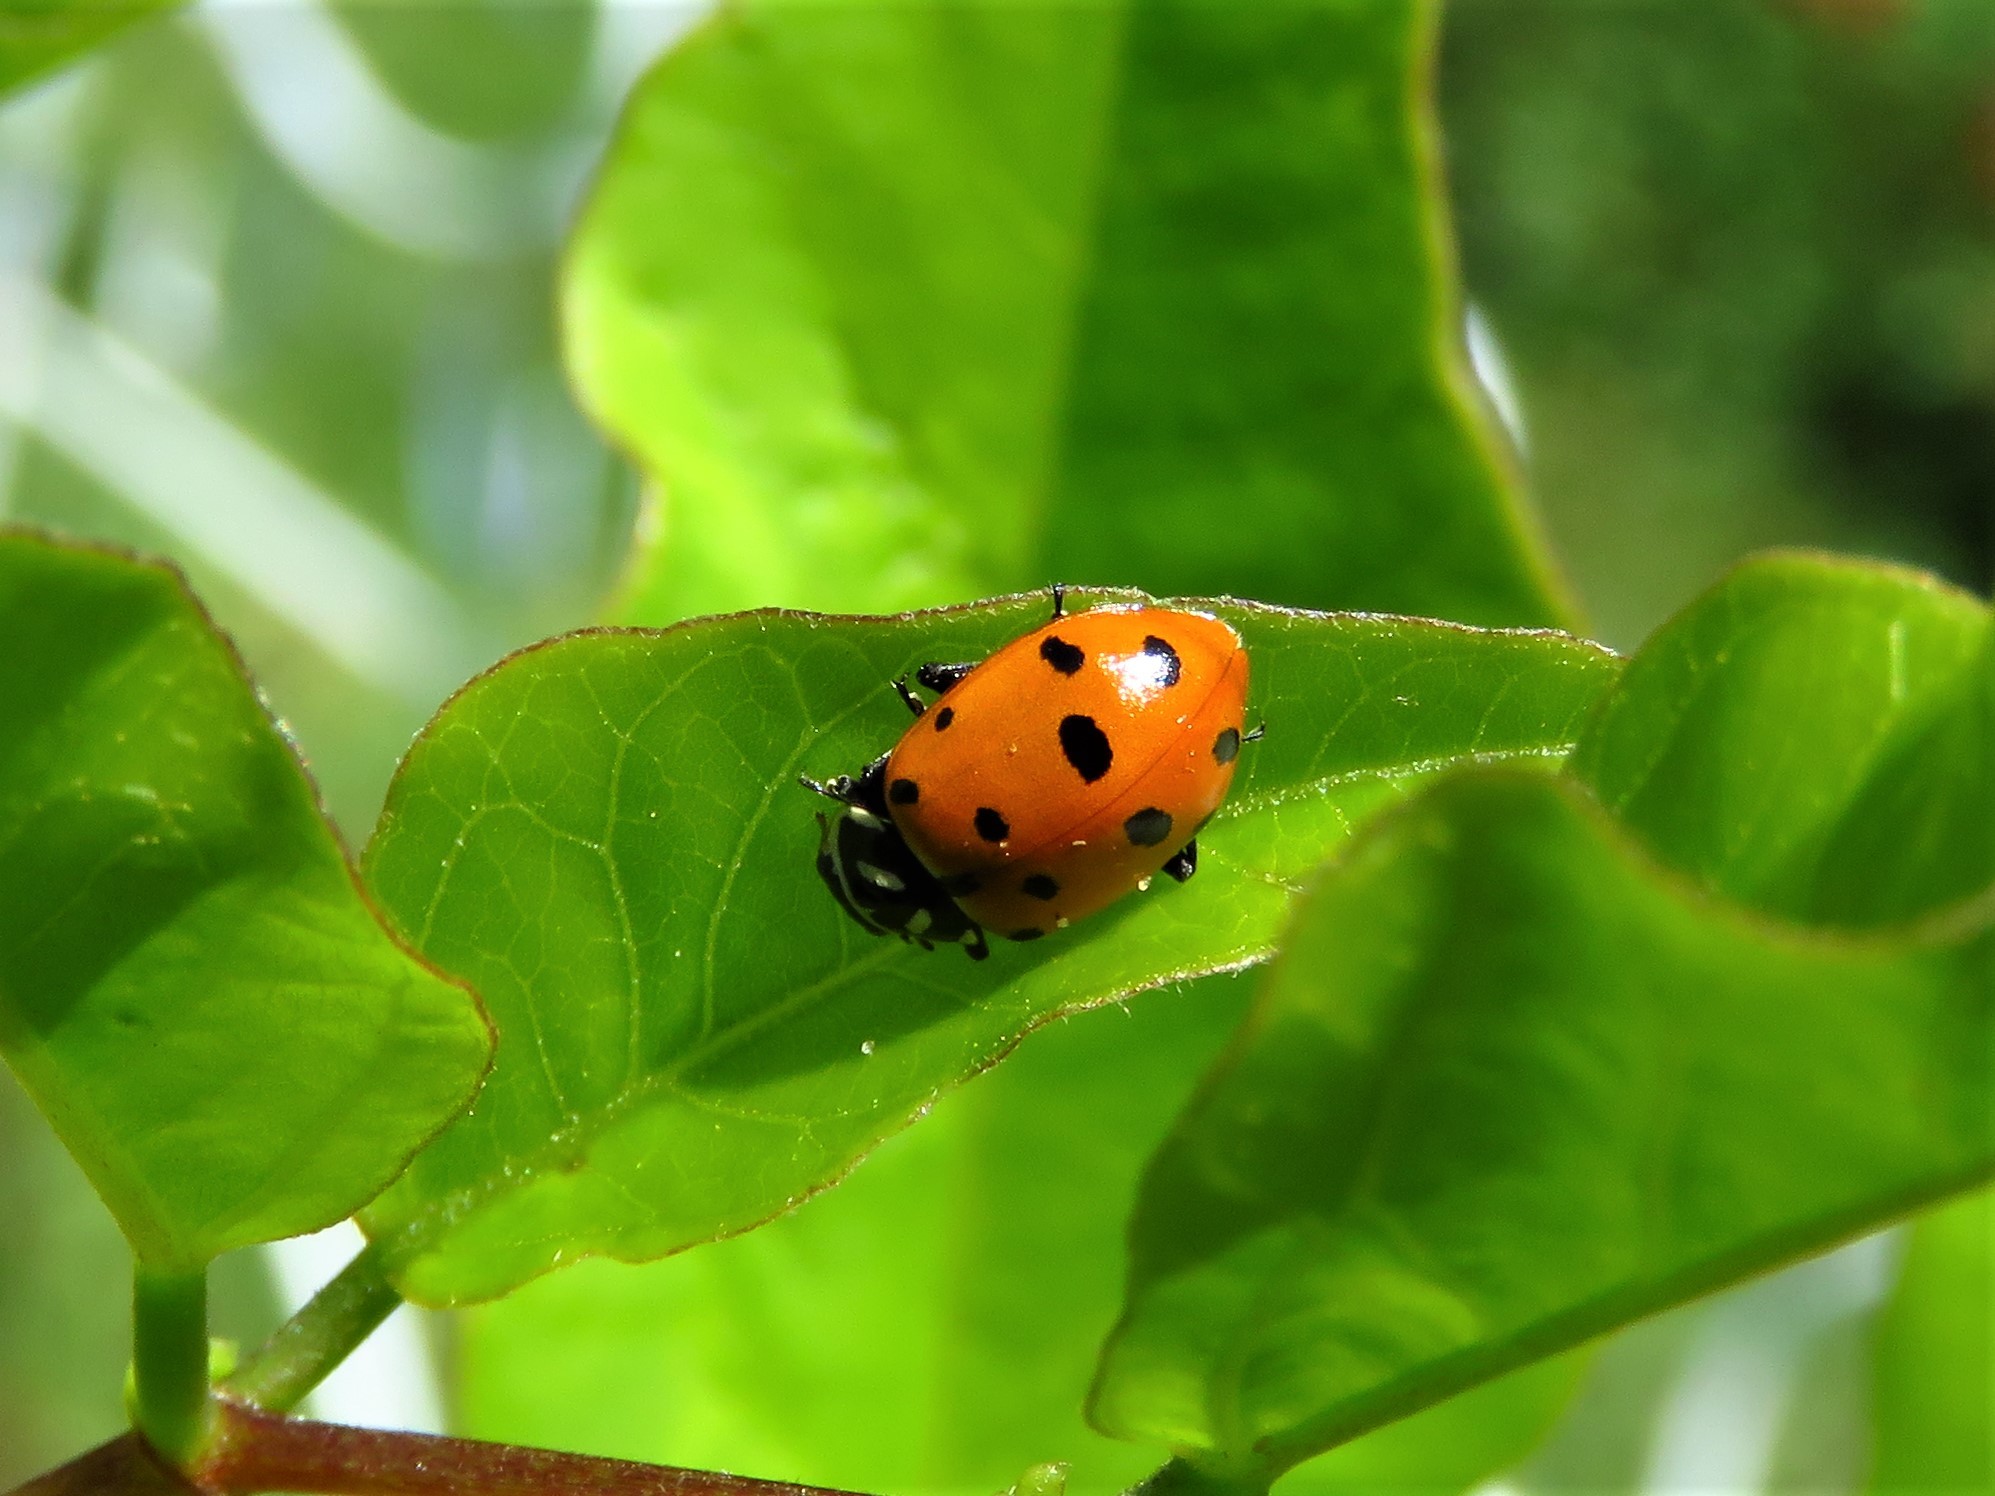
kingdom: Animalia
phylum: Arthropoda
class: Insecta
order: Coleoptera
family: Coccinellidae
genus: Hippodamia
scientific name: Hippodamia convergens
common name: Convergent lady beetle
